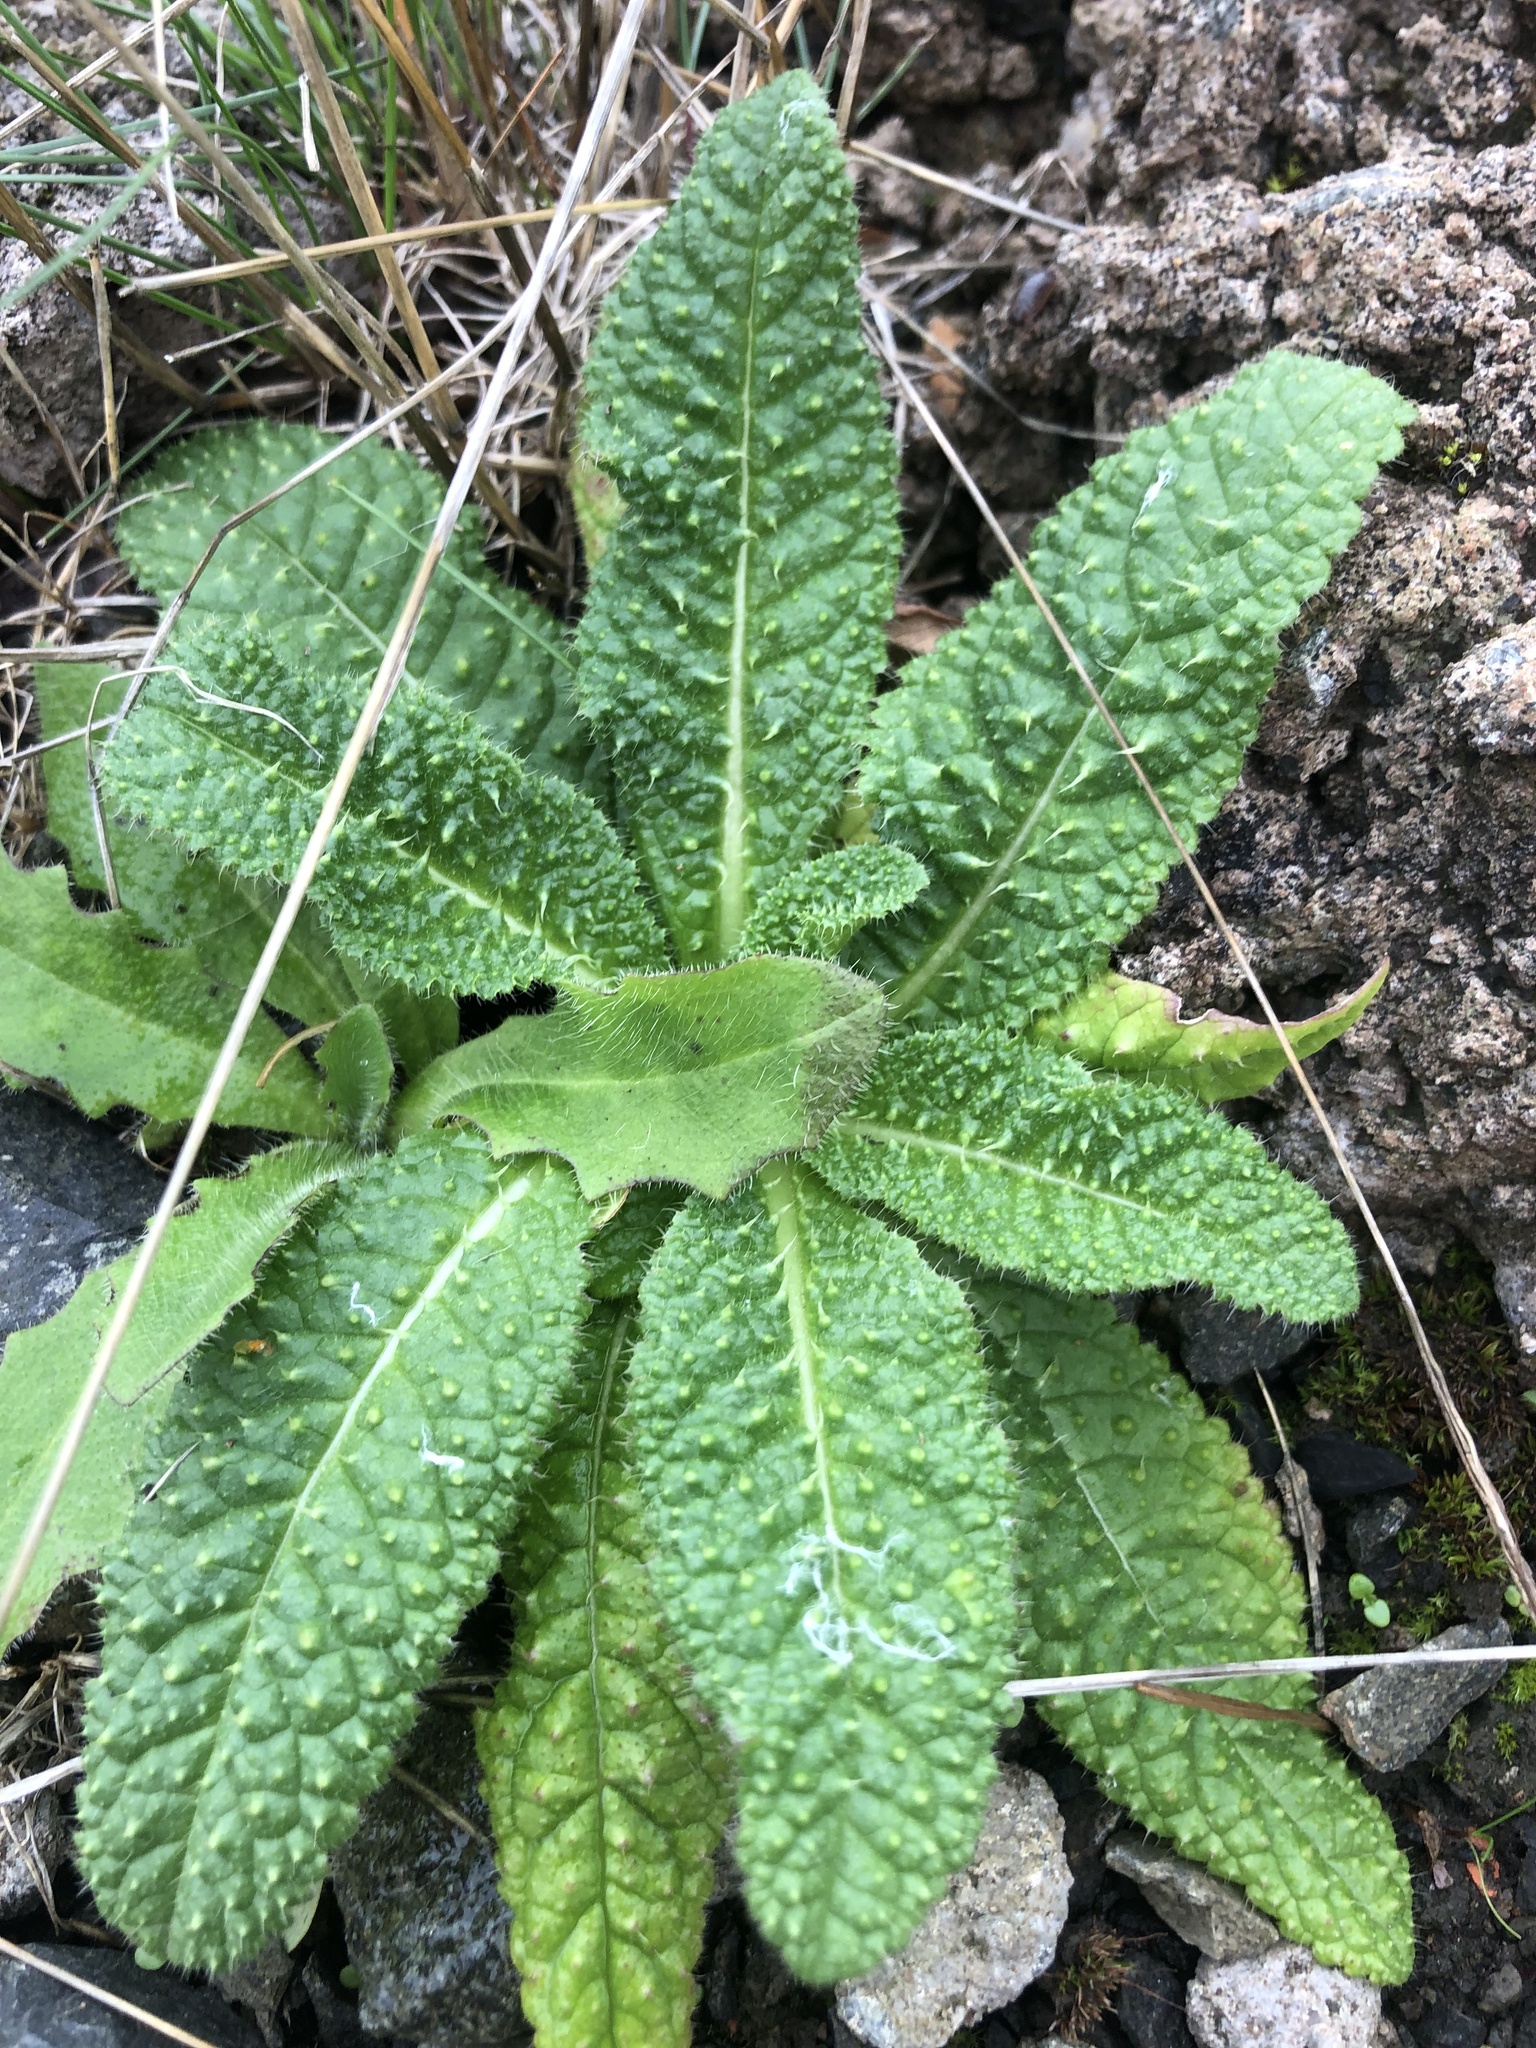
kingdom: Plantae
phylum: Tracheophyta
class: Magnoliopsida
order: Dipsacales
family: Caprifoliaceae
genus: Dipsacus
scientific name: Dipsacus fullonum
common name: Teasel
